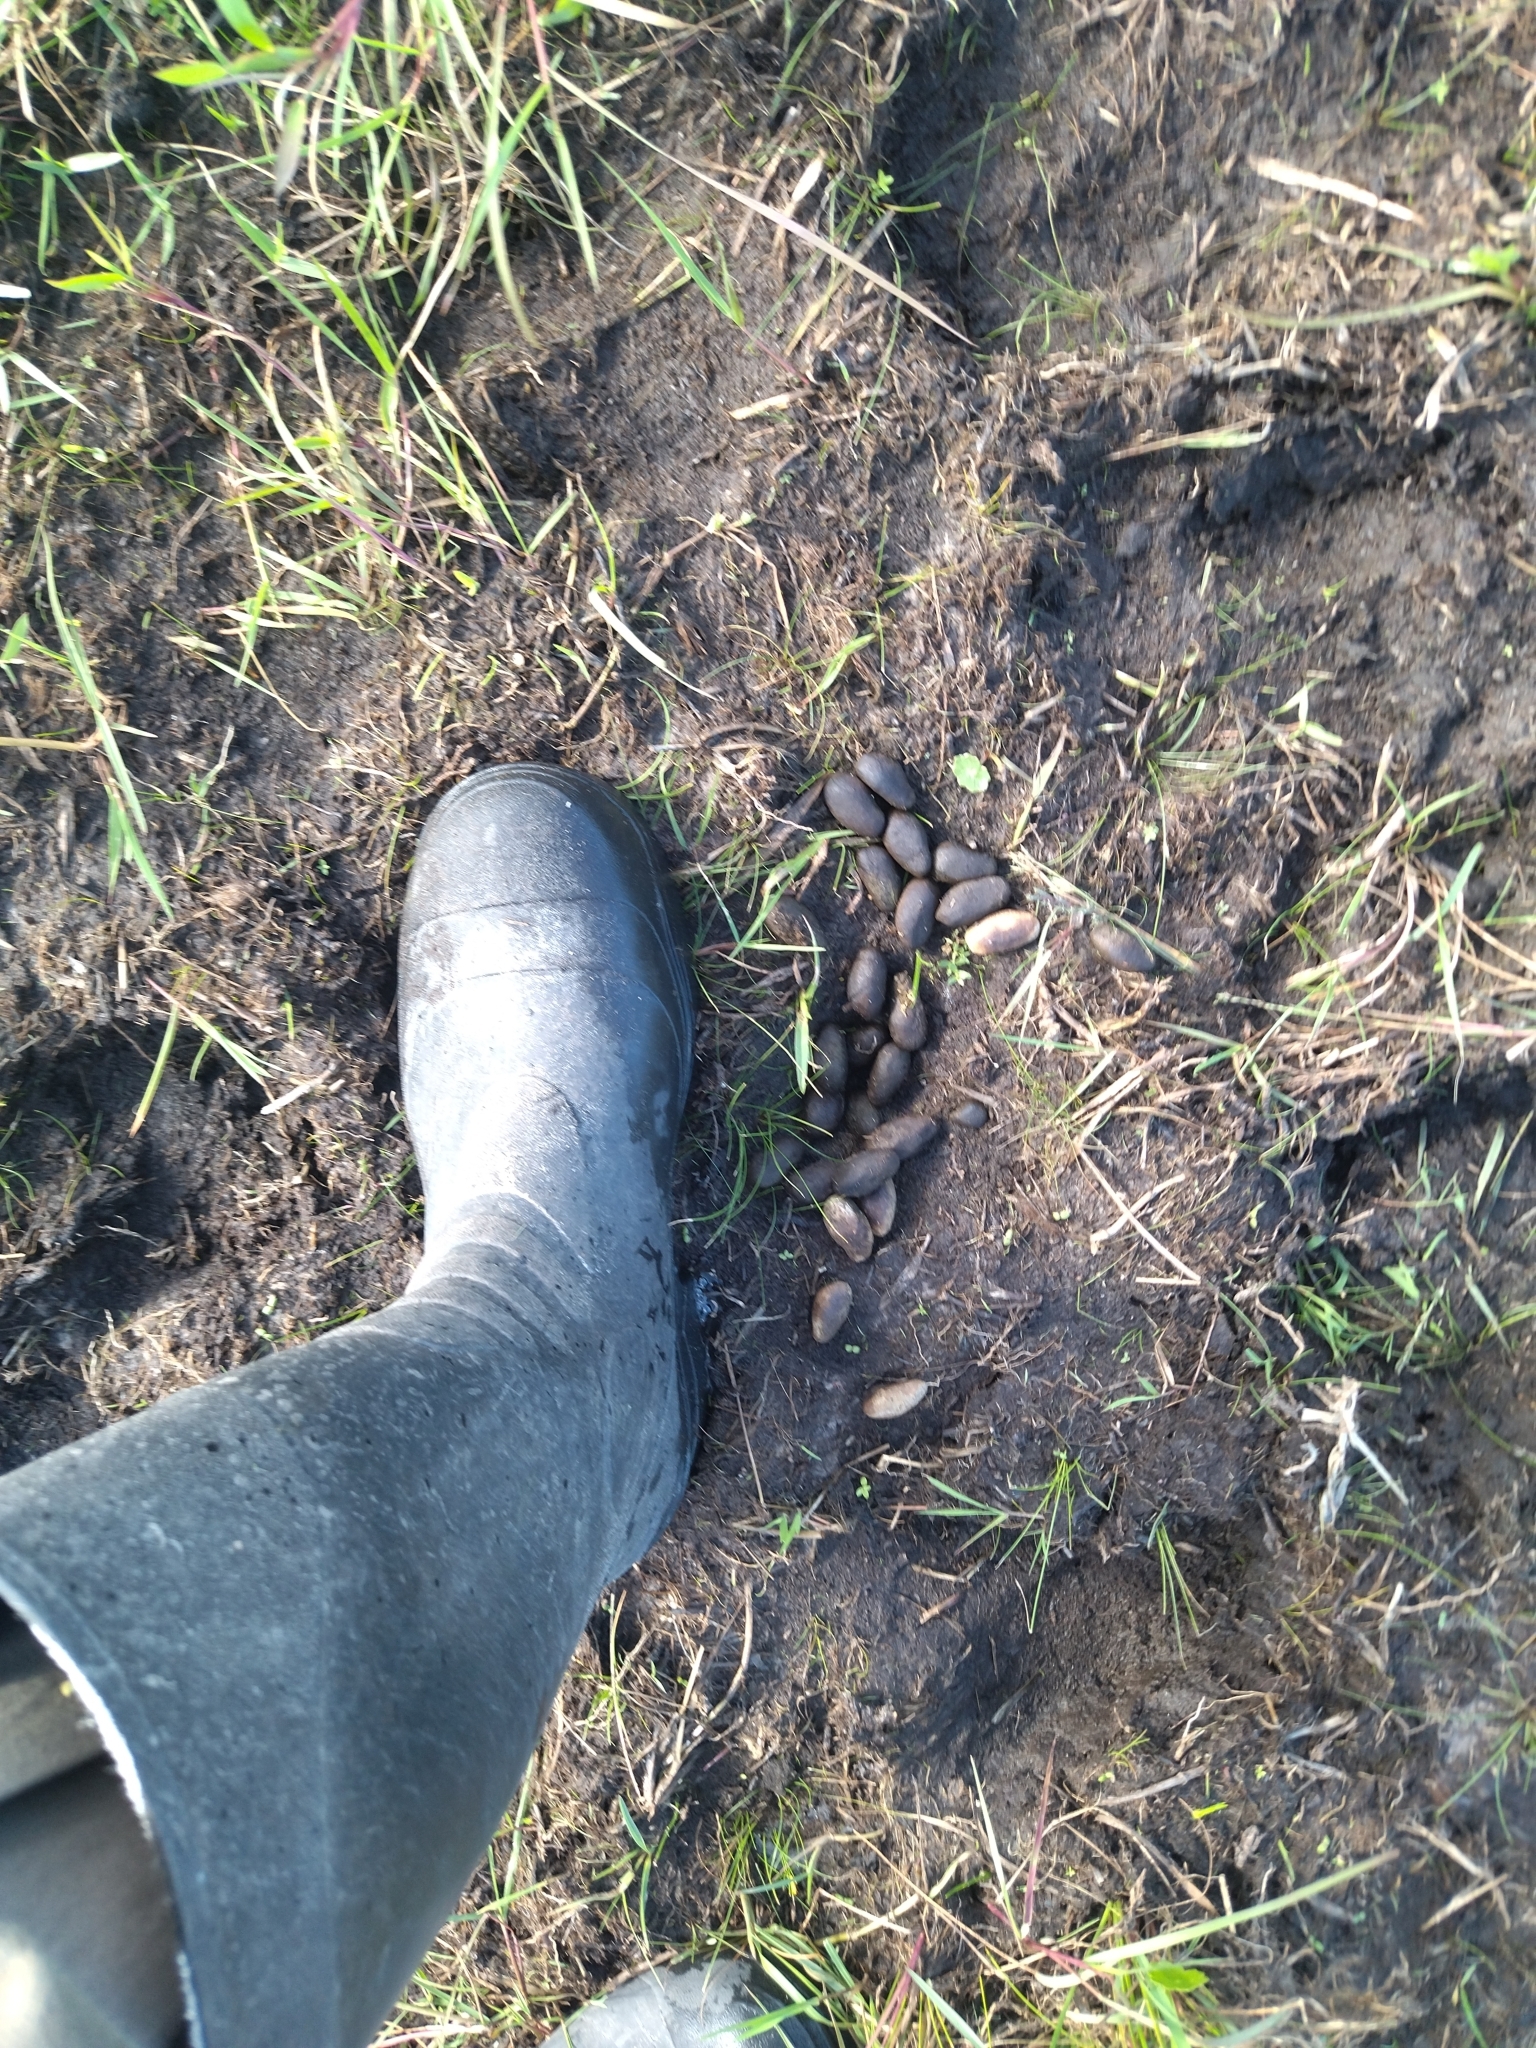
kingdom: Animalia
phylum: Chordata
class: Mammalia
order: Rodentia
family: Caviidae
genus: Hydrochoerus
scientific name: Hydrochoerus hydrochaeris
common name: Capybara
